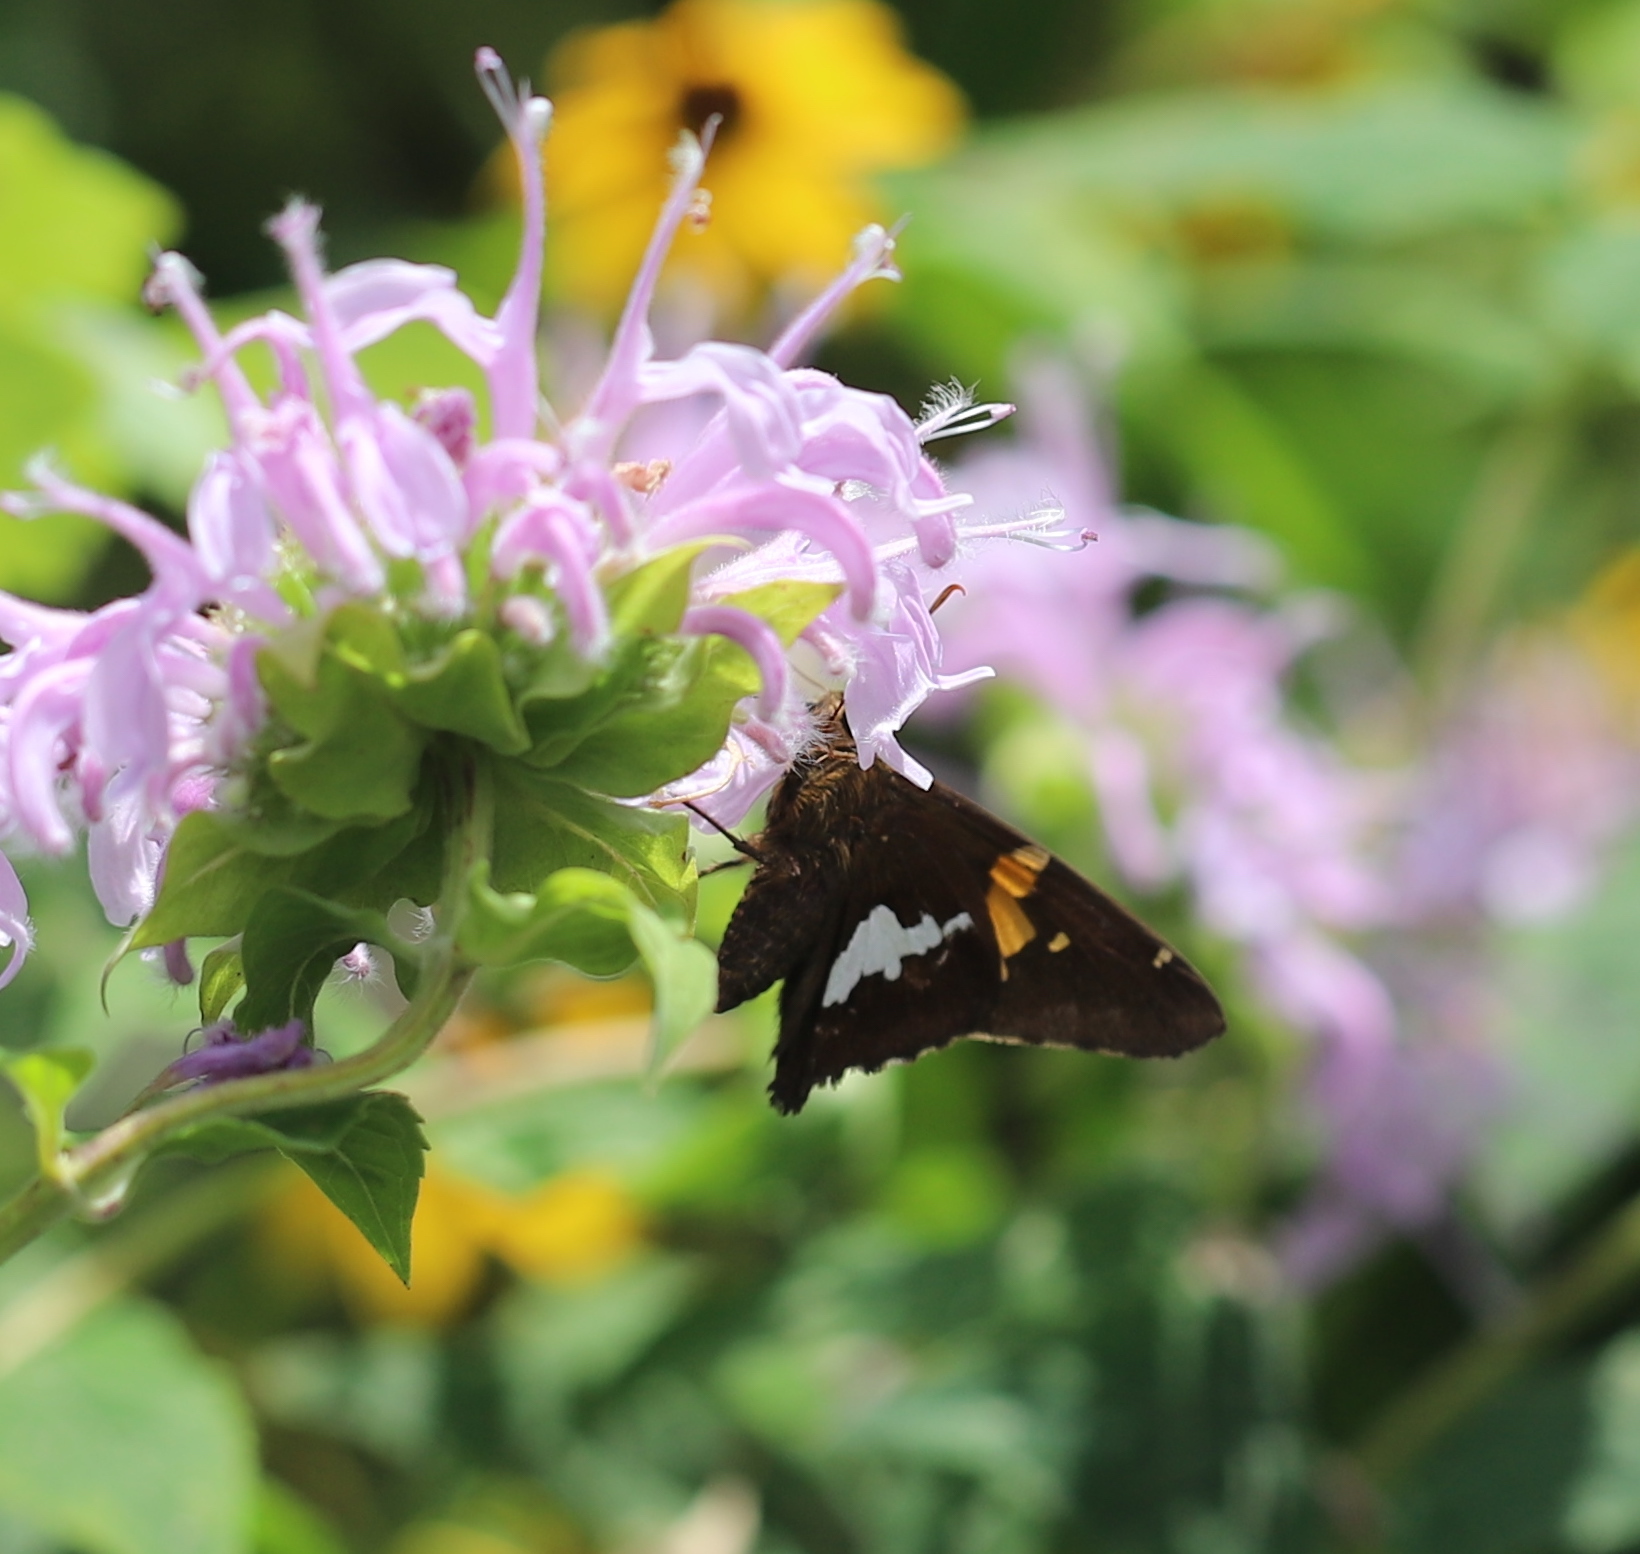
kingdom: Animalia
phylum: Arthropoda
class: Insecta
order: Lepidoptera
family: Hesperiidae
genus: Epargyreus
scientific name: Epargyreus clarus
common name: Silver-spotted skipper
